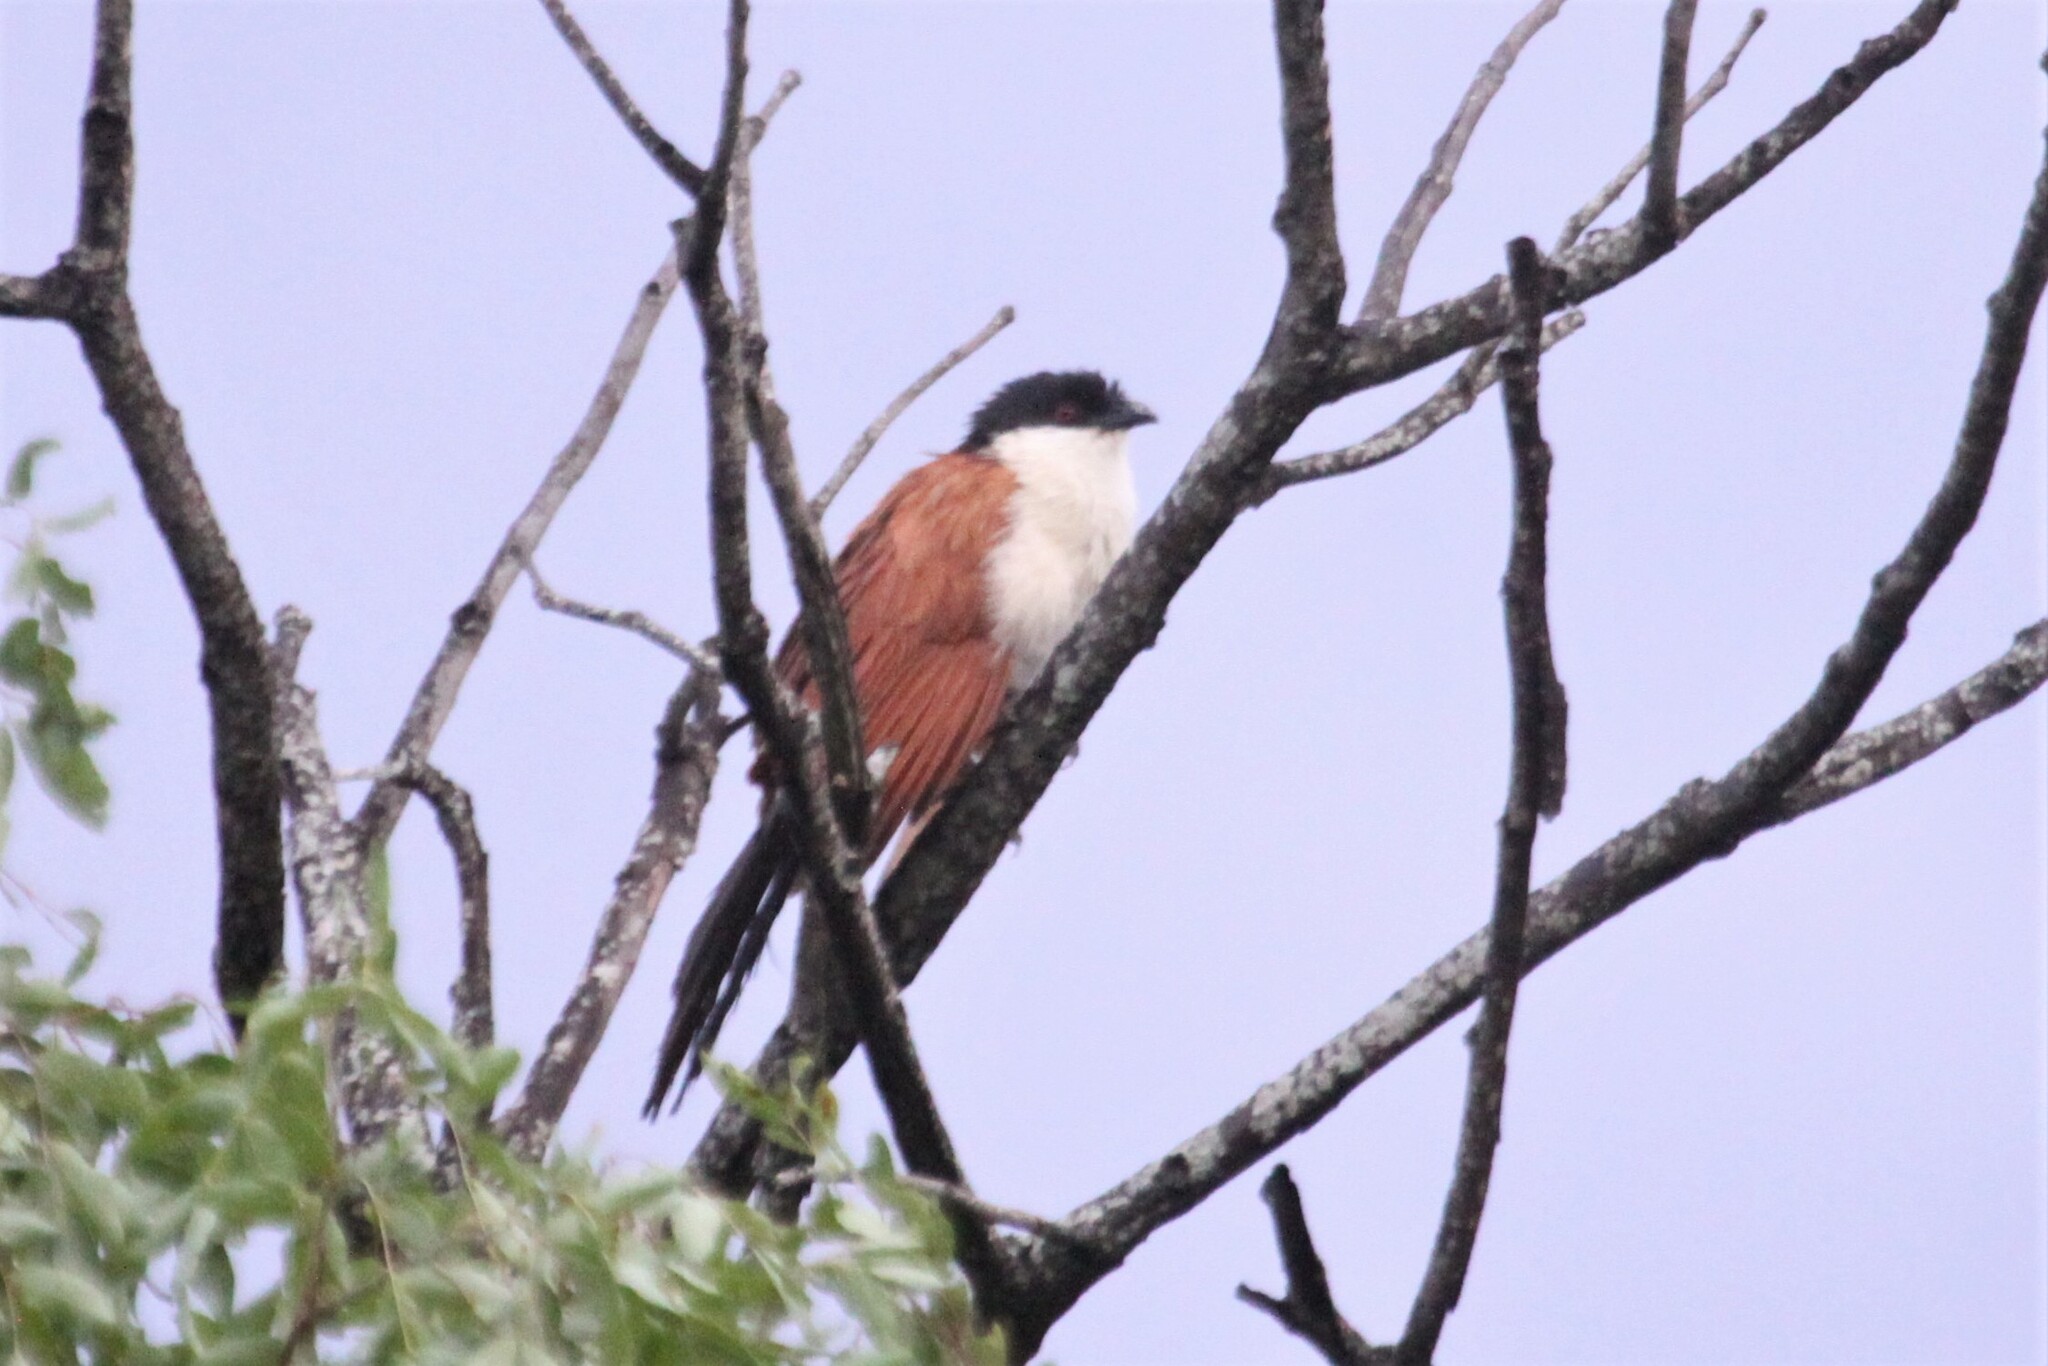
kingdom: Animalia
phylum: Chordata
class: Aves
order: Cuculiformes
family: Cuculidae
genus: Centropus
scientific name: Centropus senegalensis
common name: Senegal coucal
